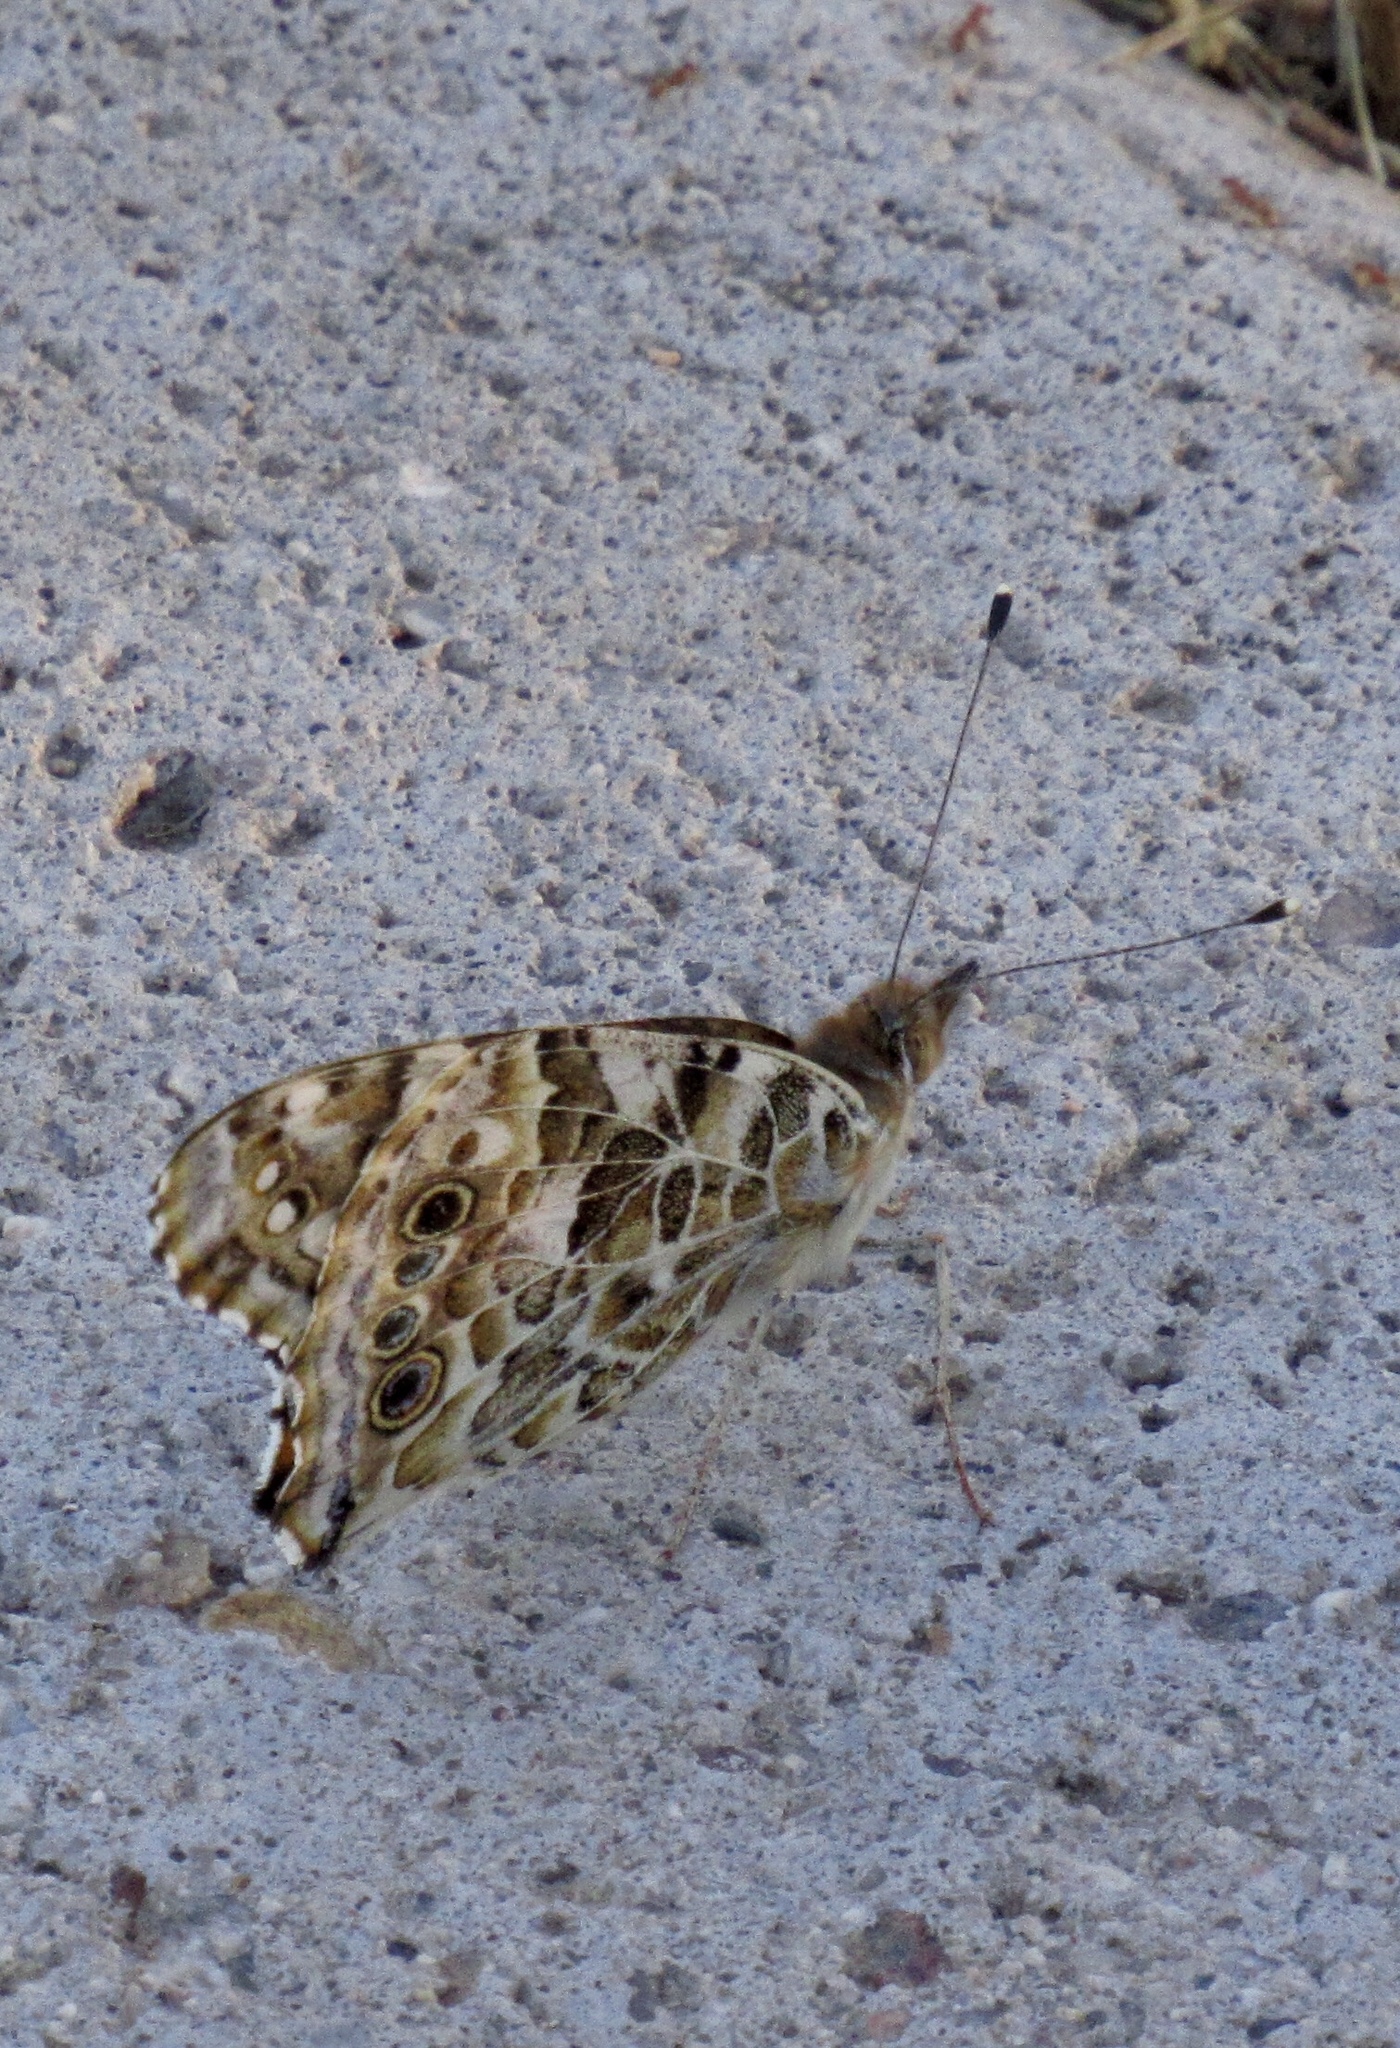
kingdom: Animalia
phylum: Arthropoda
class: Insecta
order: Lepidoptera
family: Nymphalidae
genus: Vanessa
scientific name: Vanessa cardui
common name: Painted lady
